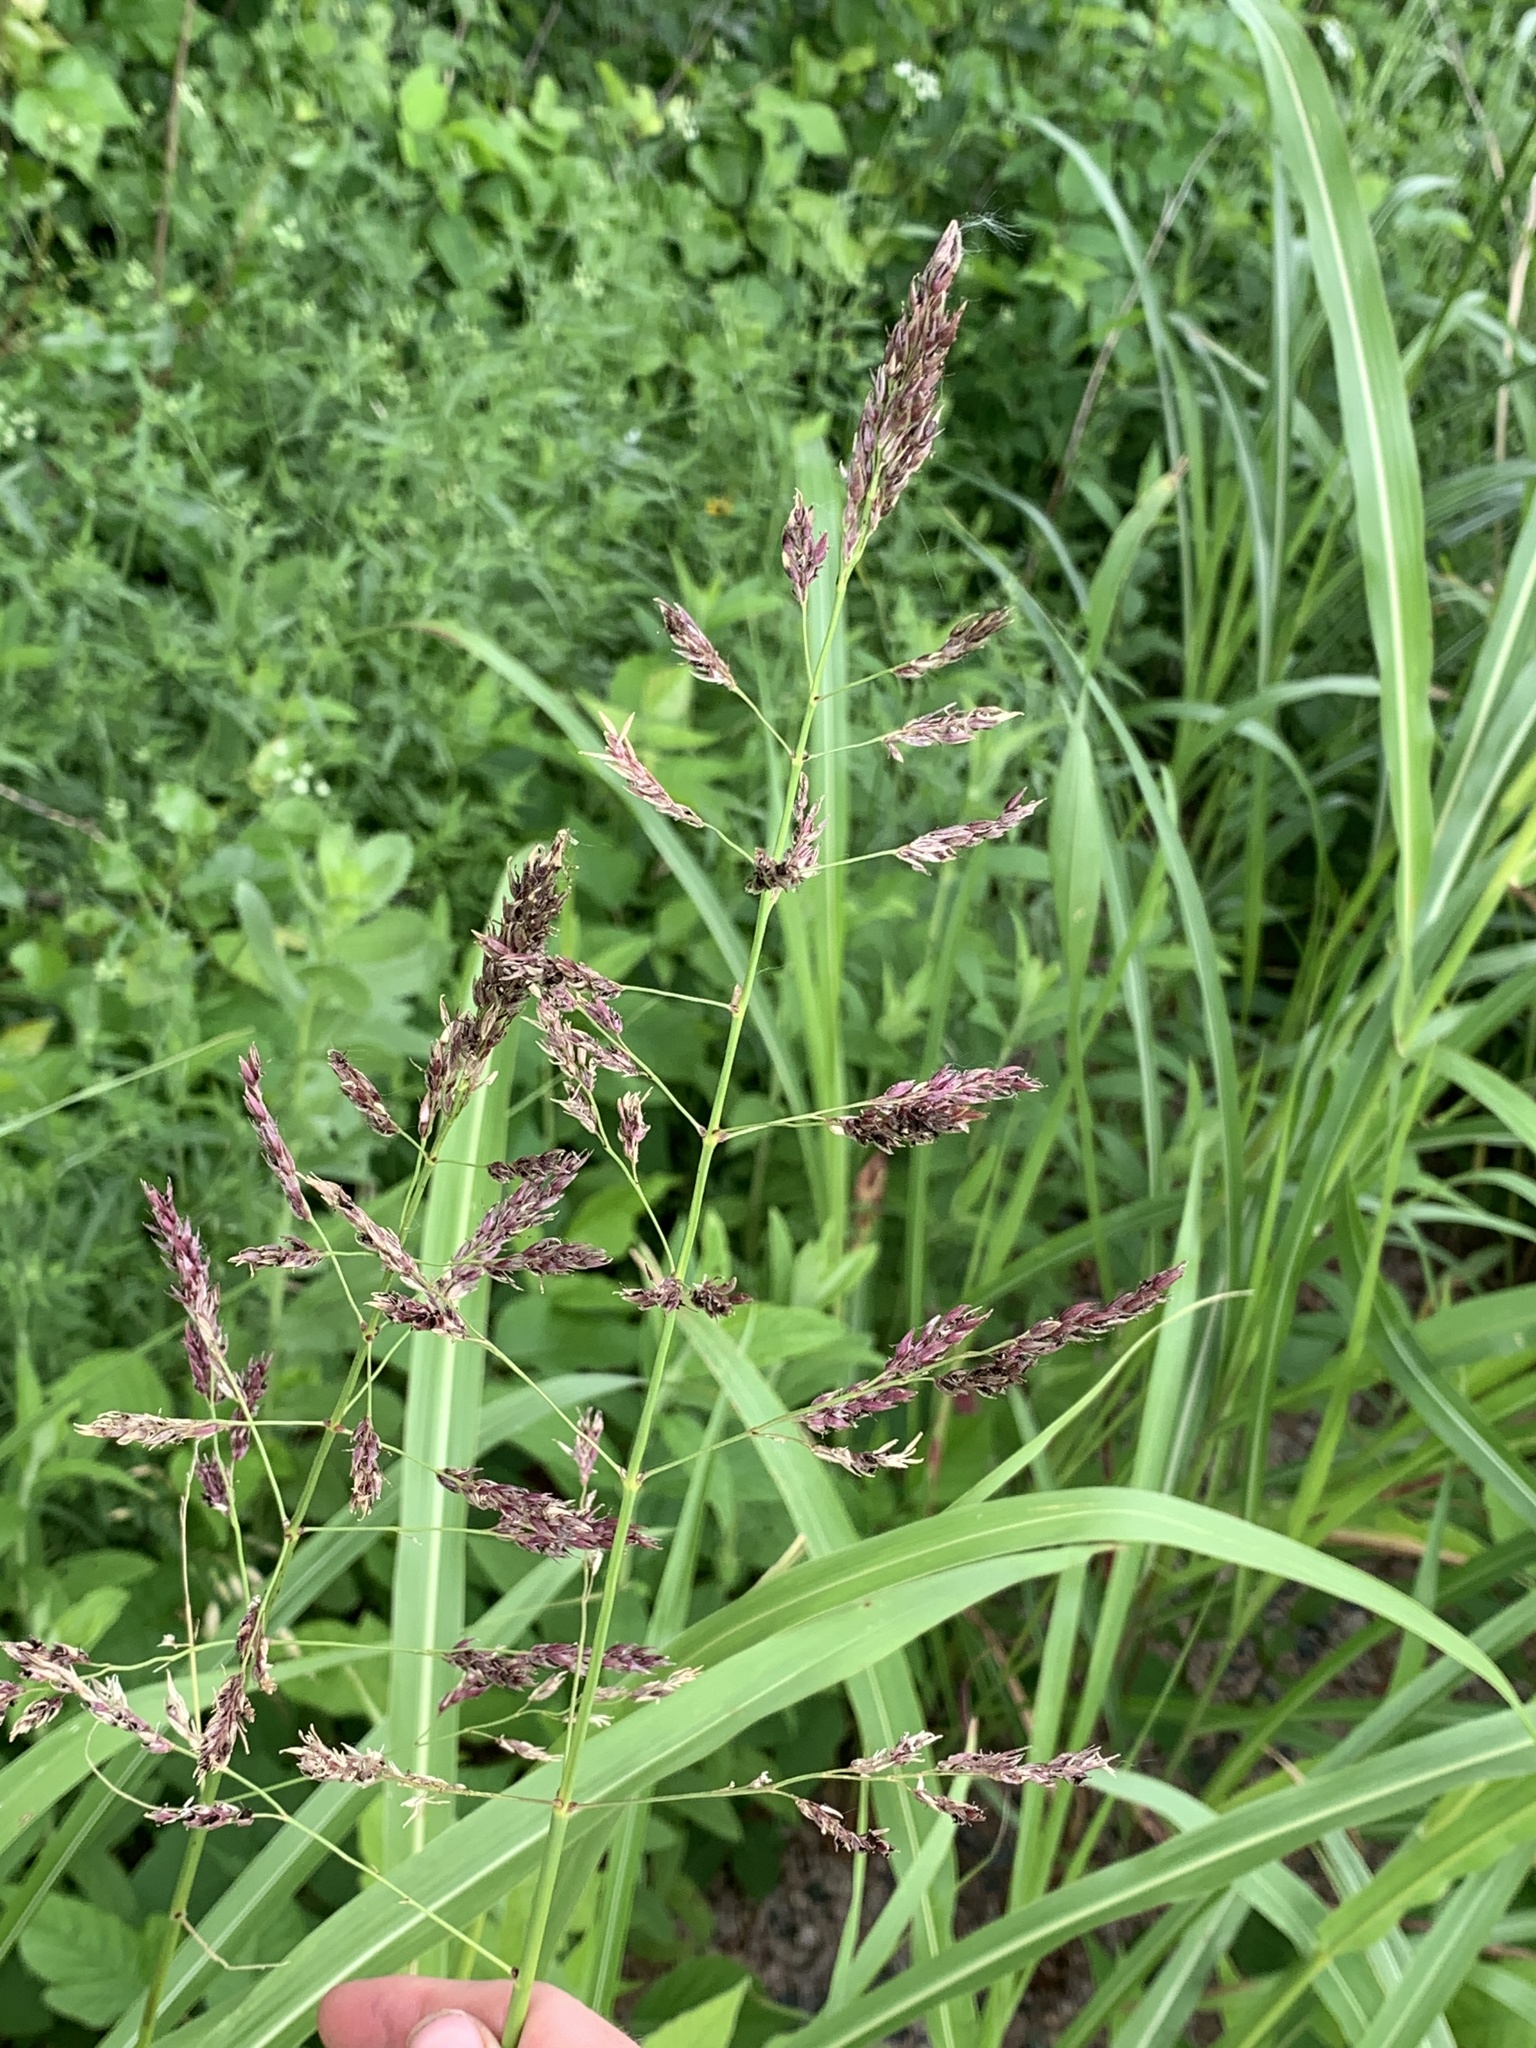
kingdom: Plantae
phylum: Tracheophyta
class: Liliopsida
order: Poales
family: Poaceae
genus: Sorghum
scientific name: Sorghum halepense
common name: Johnson-grass
